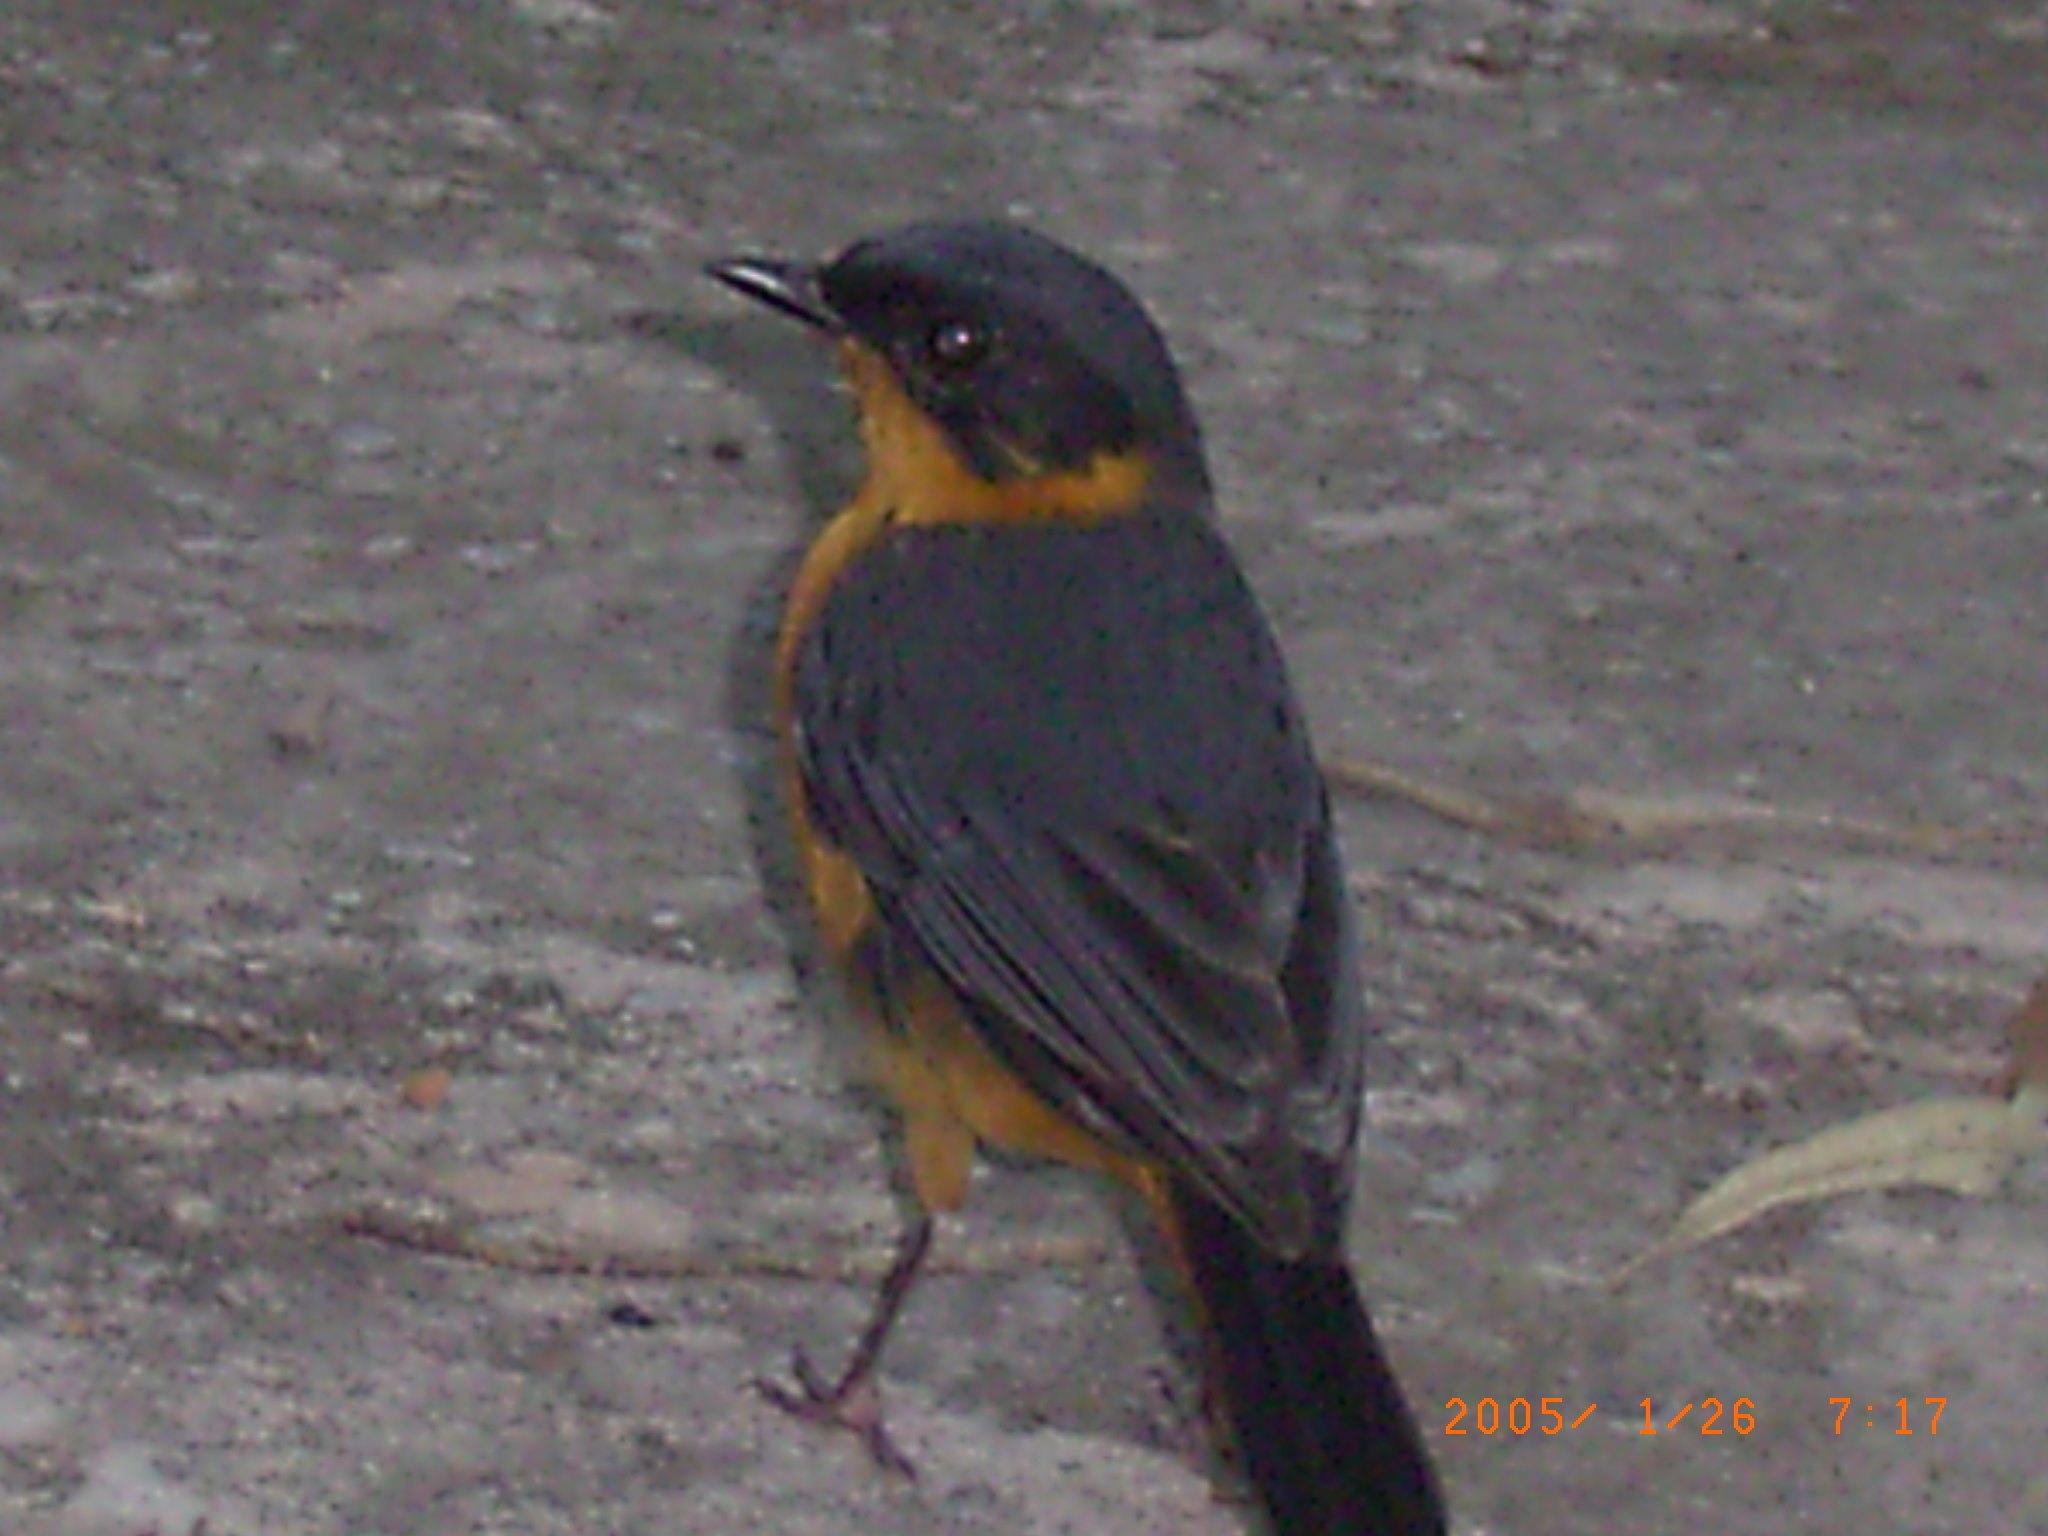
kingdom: Animalia
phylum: Chordata
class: Aves
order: Passeriformes
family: Muscicapidae
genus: Cossypha
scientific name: Cossypha dichroa
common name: Chorister robin-chat
